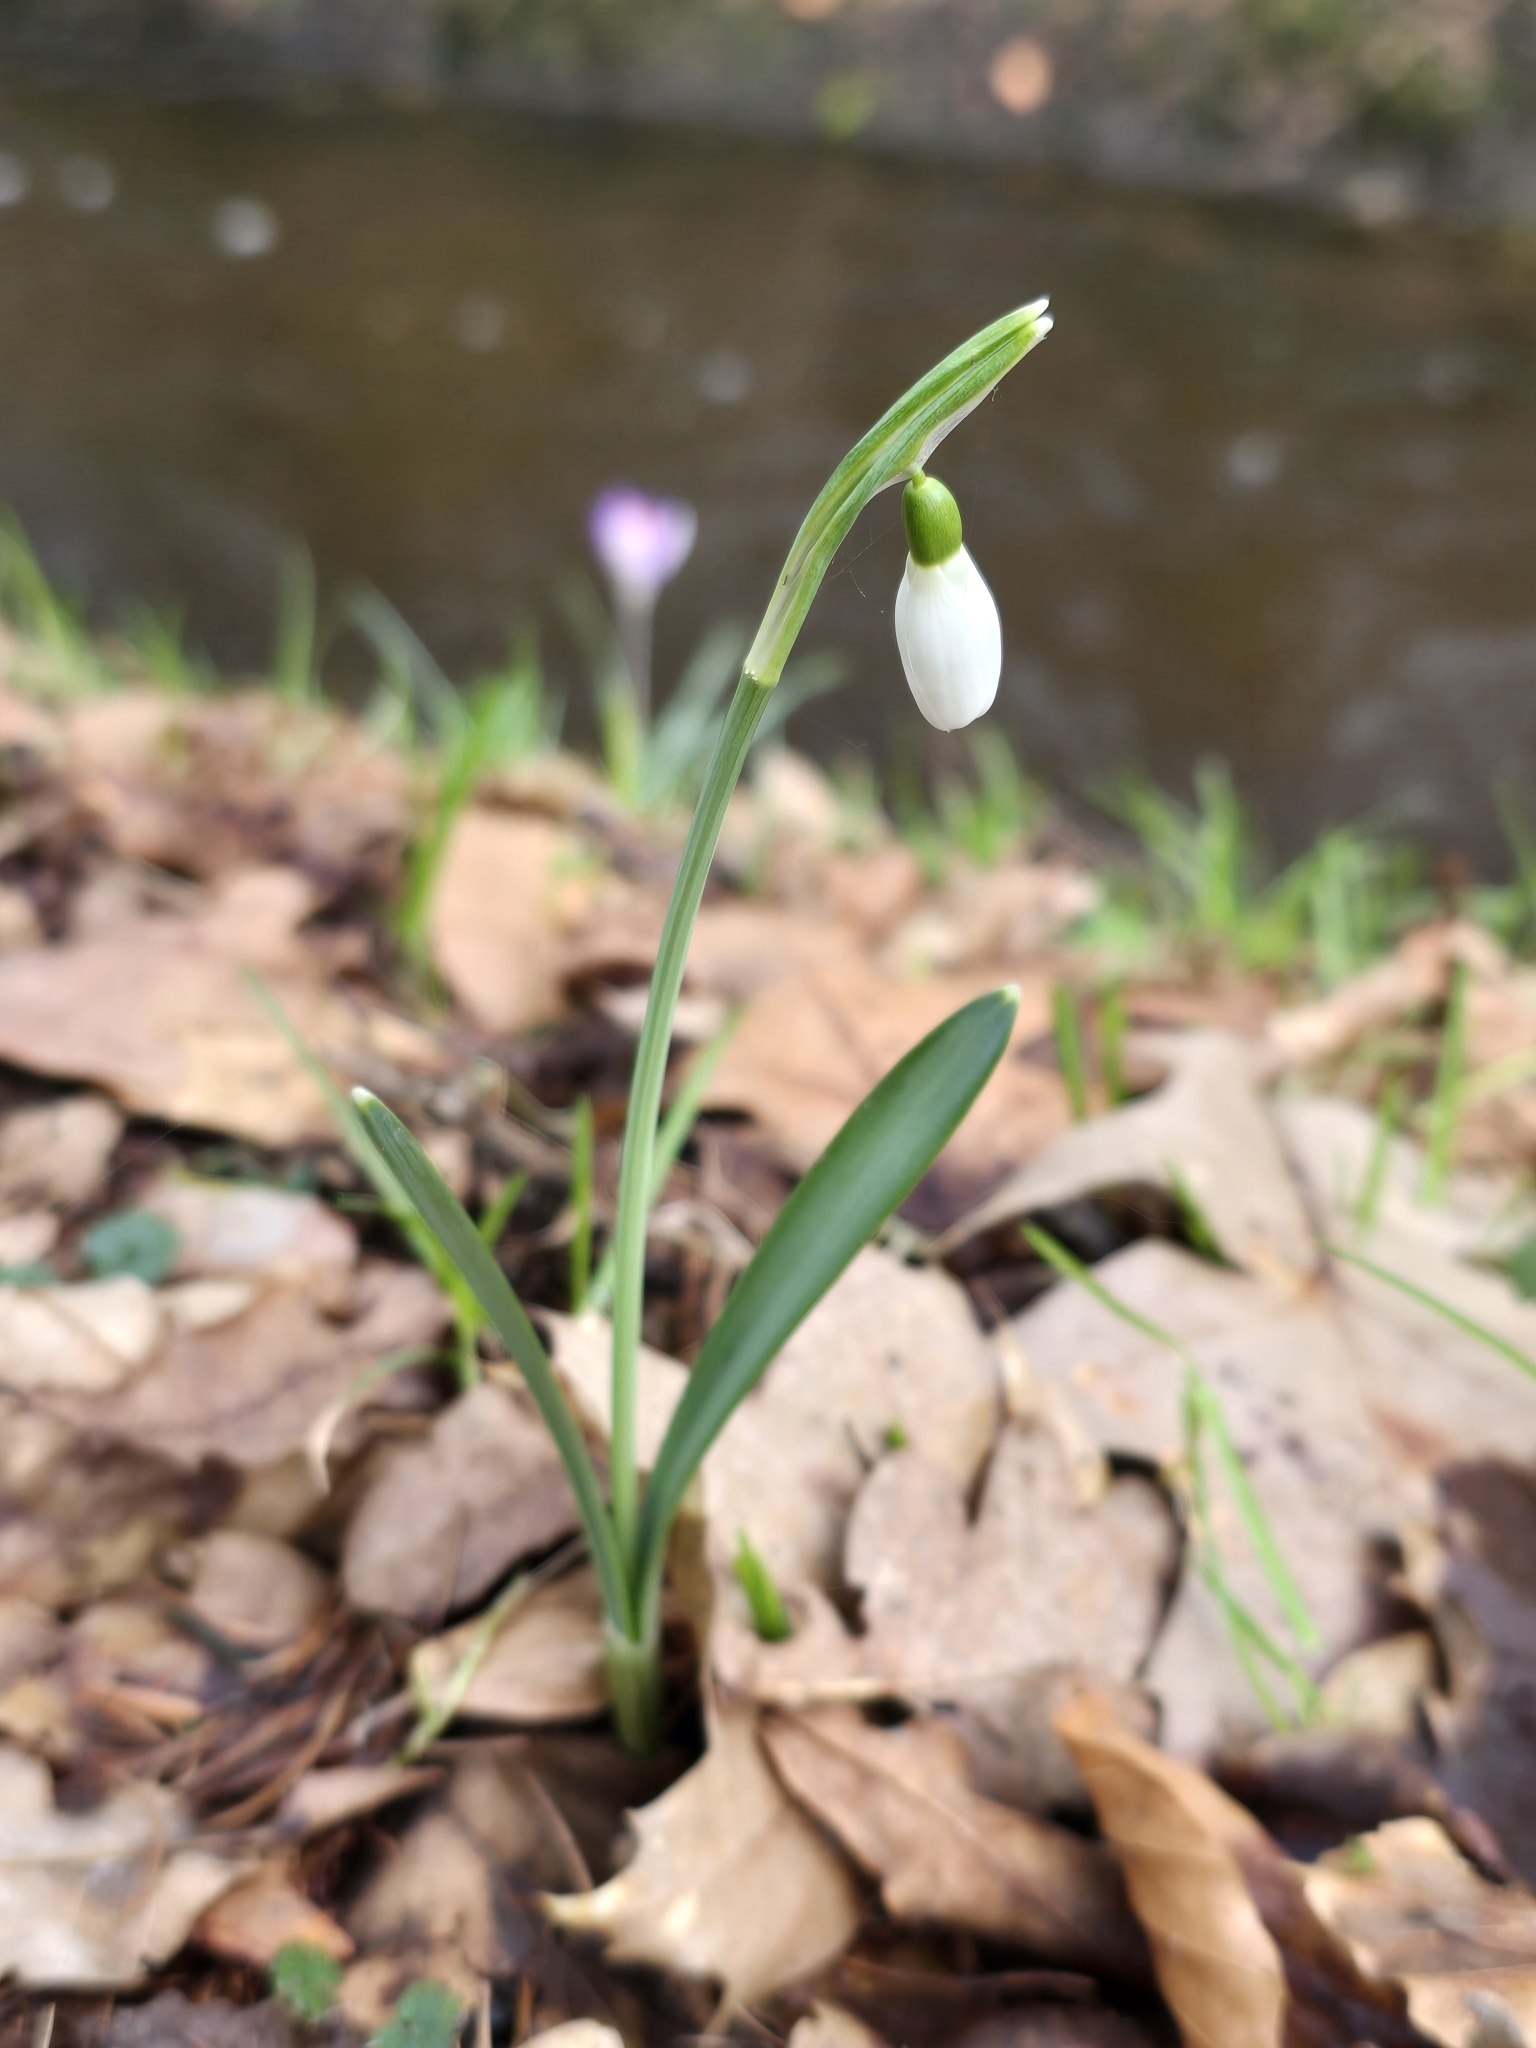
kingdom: Plantae
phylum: Tracheophyta
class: Liliopsida
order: Asparagales
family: Amaryllidaceae
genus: Galanthus
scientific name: Galanthus nivalis
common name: Snowdrop
